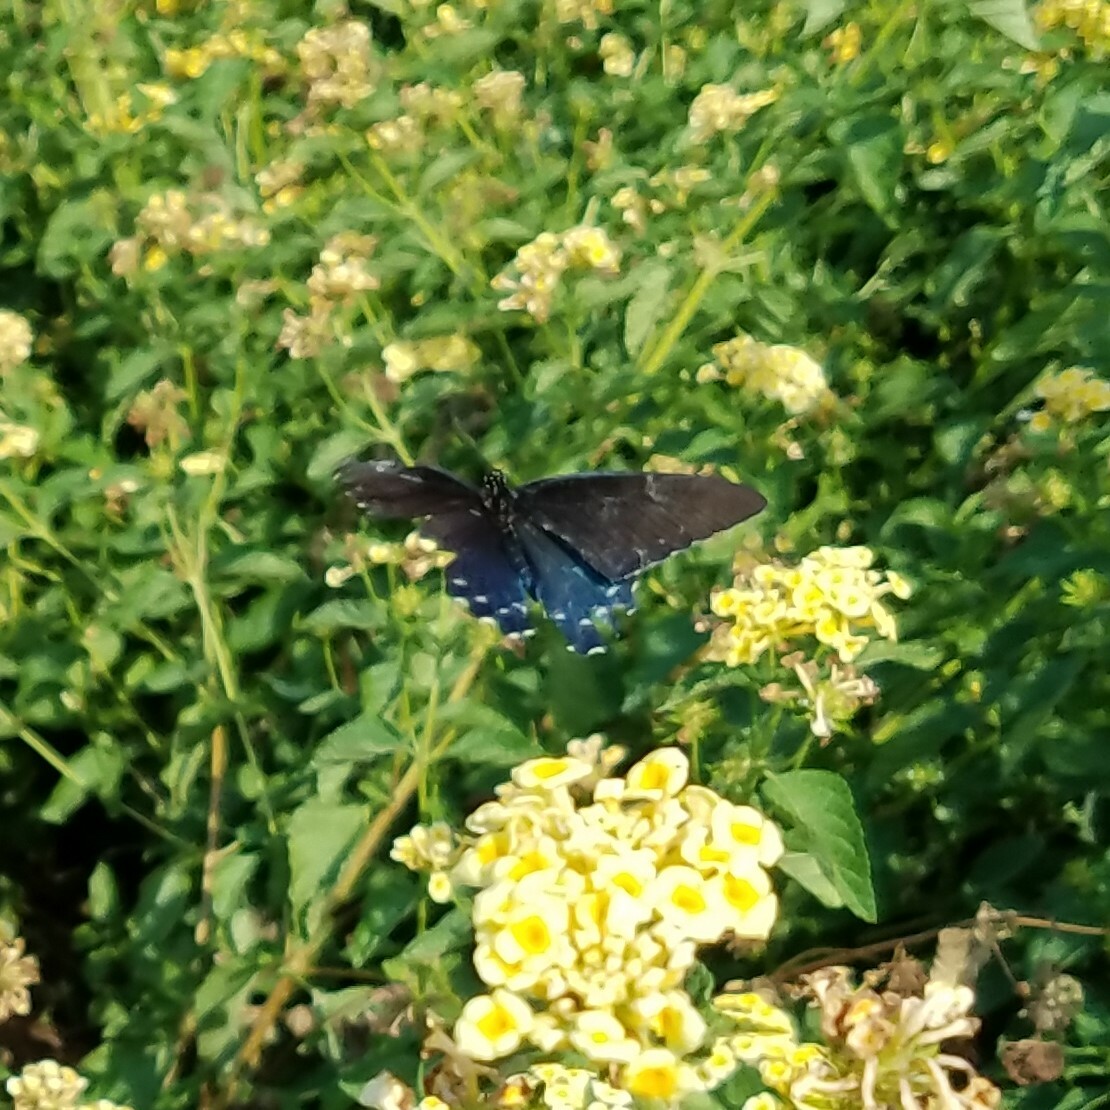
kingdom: Animalia
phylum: Arthropoda
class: Insecta
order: Lepidoptera
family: Papilionidae
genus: Battus
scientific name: Battus philenor
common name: Pipevine swallowtail
